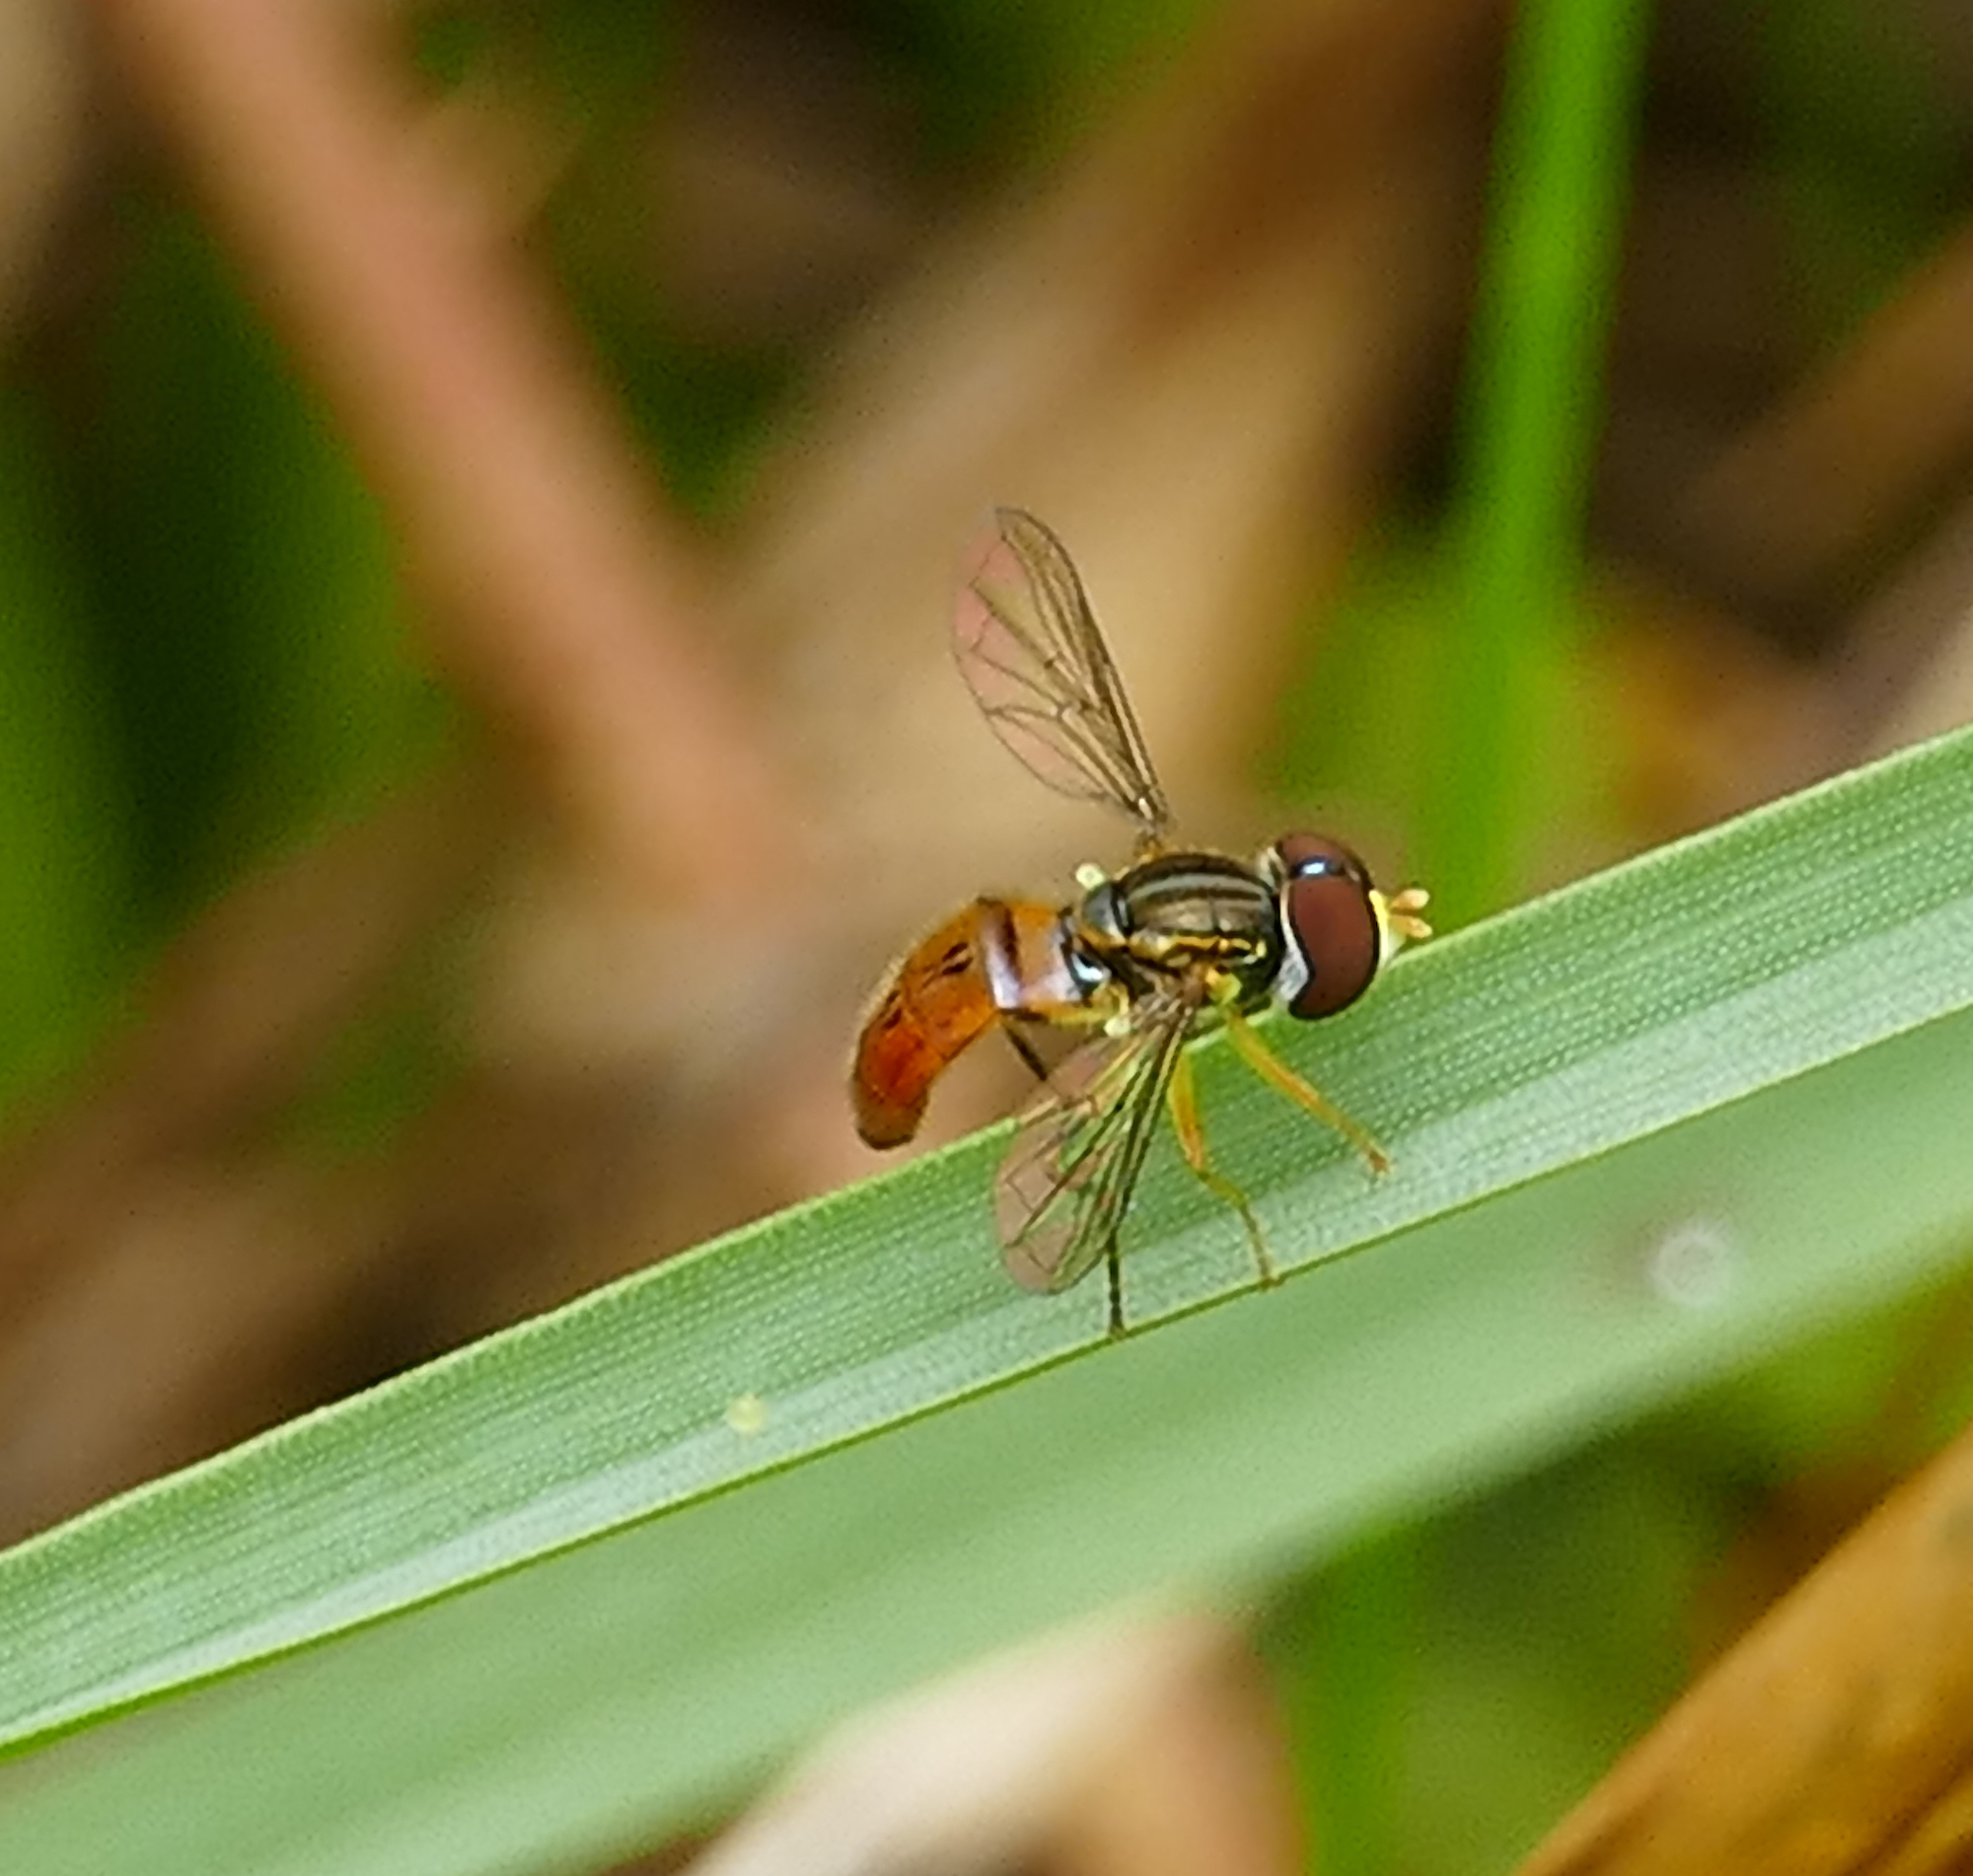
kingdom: Animalia
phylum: Arthropoda
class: Insecta
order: Diptera
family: Syrphidae
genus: Toxomerus
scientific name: Toxomerus boscii
